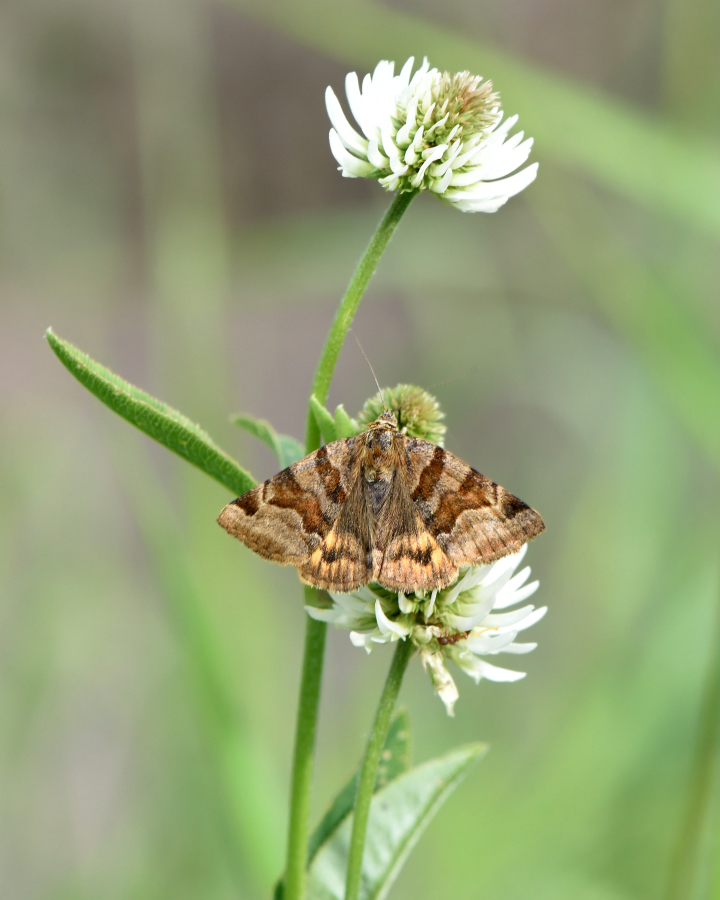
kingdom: Animalia
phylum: Arthropoda
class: Insecta
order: Lepidoptera
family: Erebidae
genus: Euclidia
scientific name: Euclidia glyphica
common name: Burnet companion
